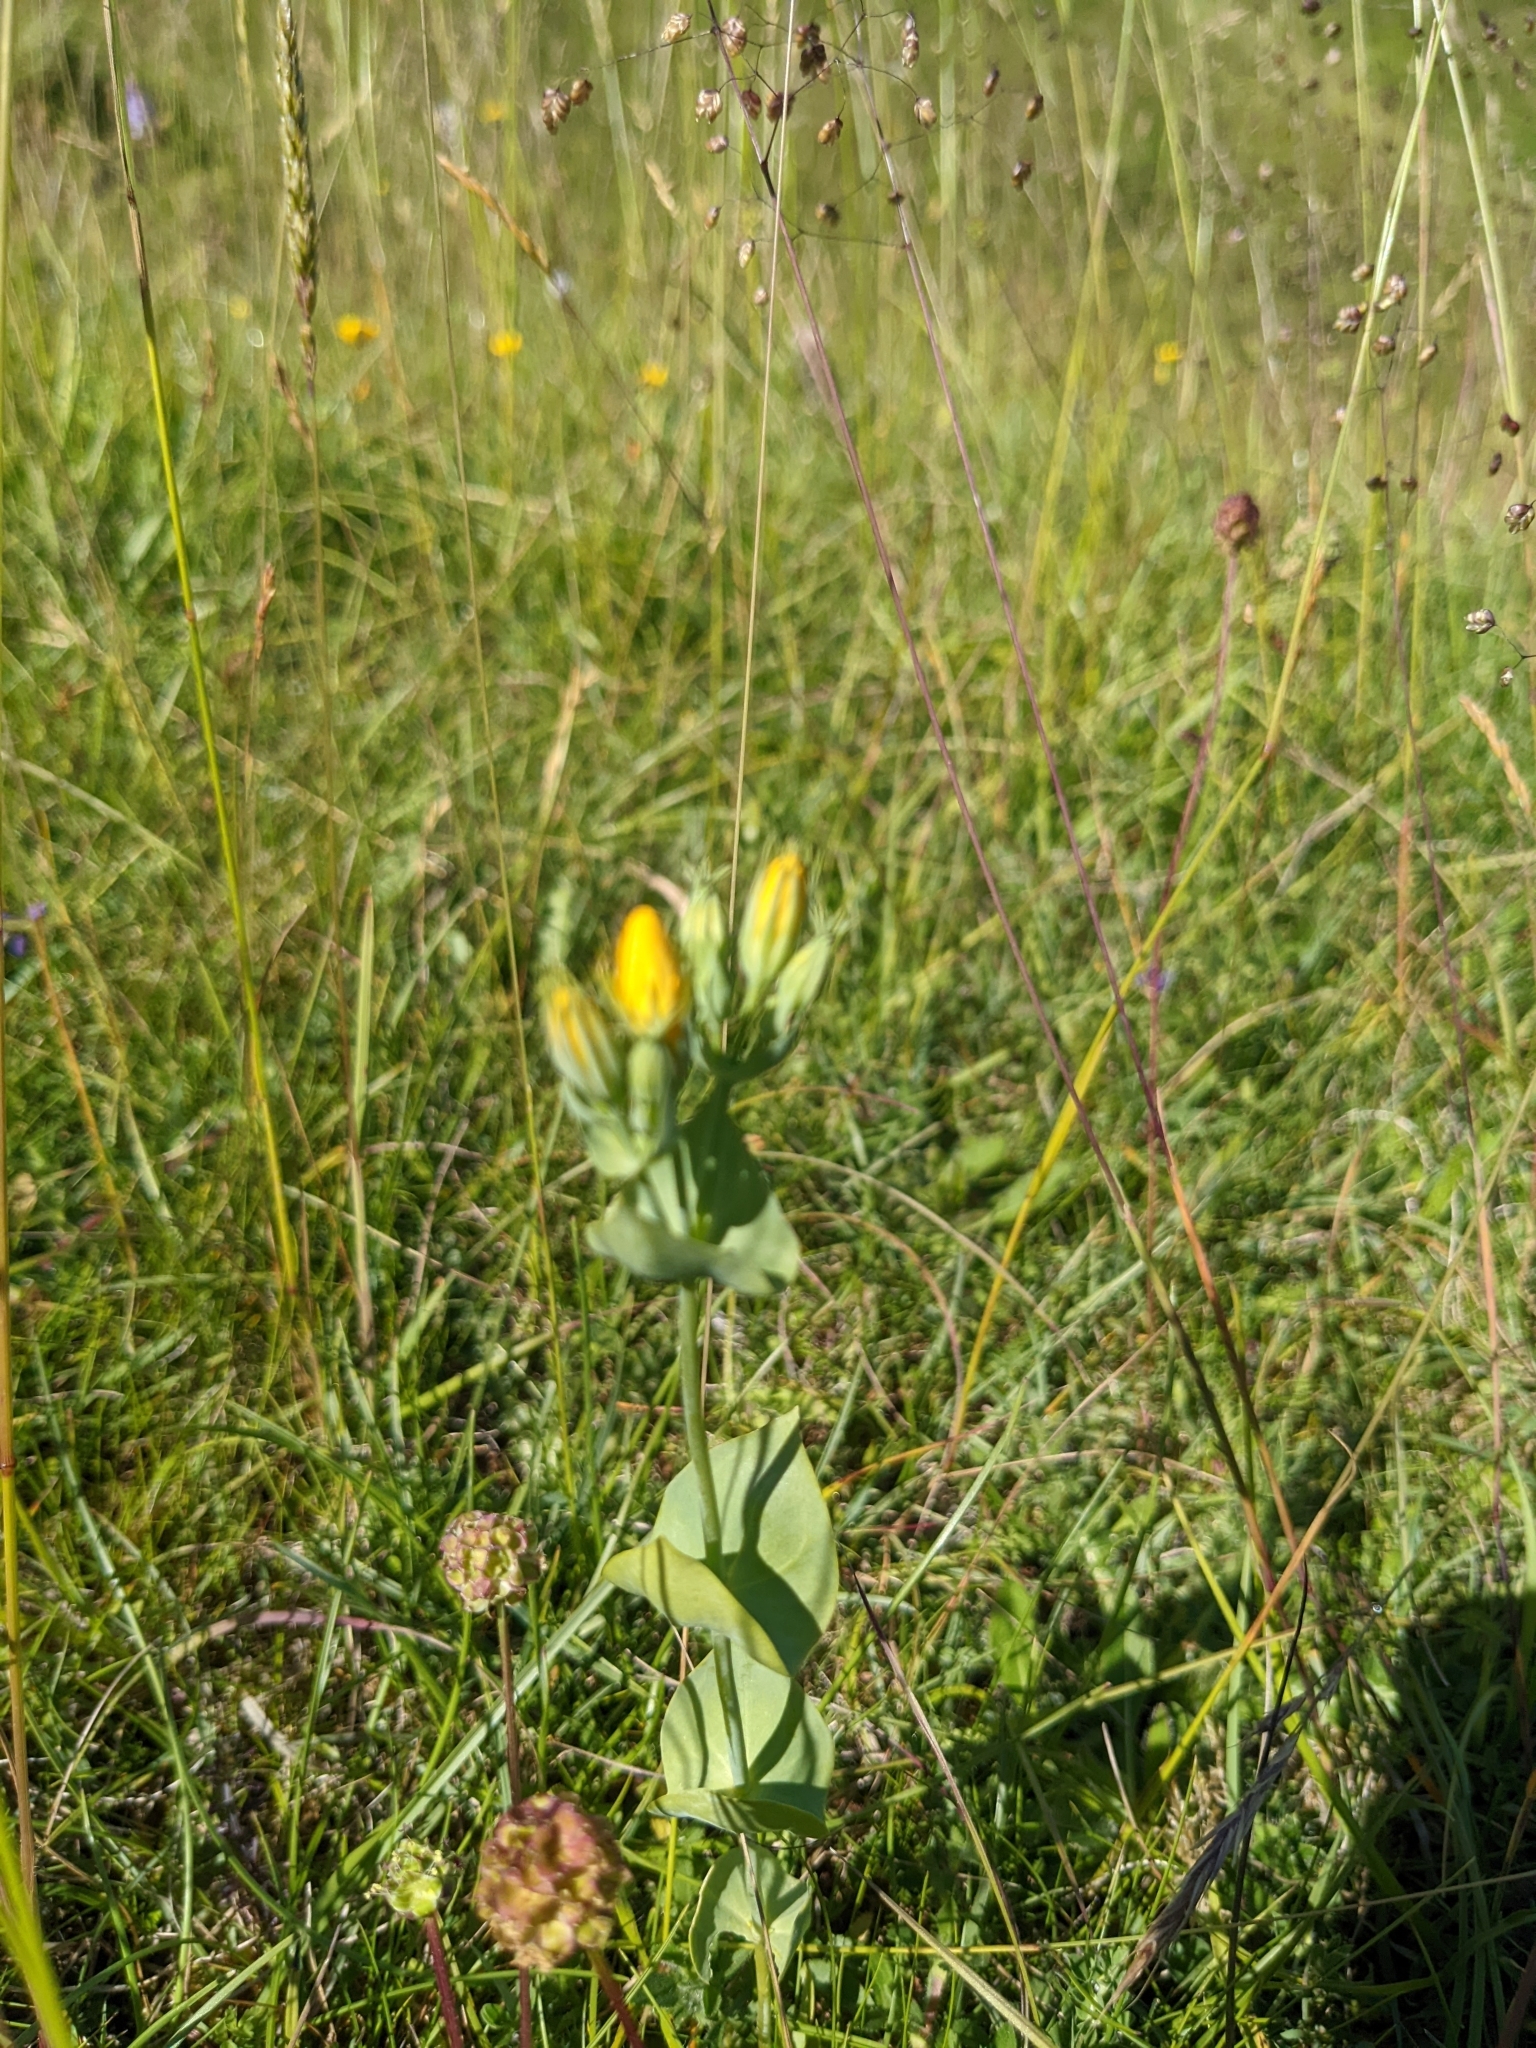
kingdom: Plantae
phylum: Tracheophyta
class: Magnoliopsida
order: Gentianales
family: Gentianaceae
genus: Blackstonia
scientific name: Blackstonia perfoliata
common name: Yellow-wort
